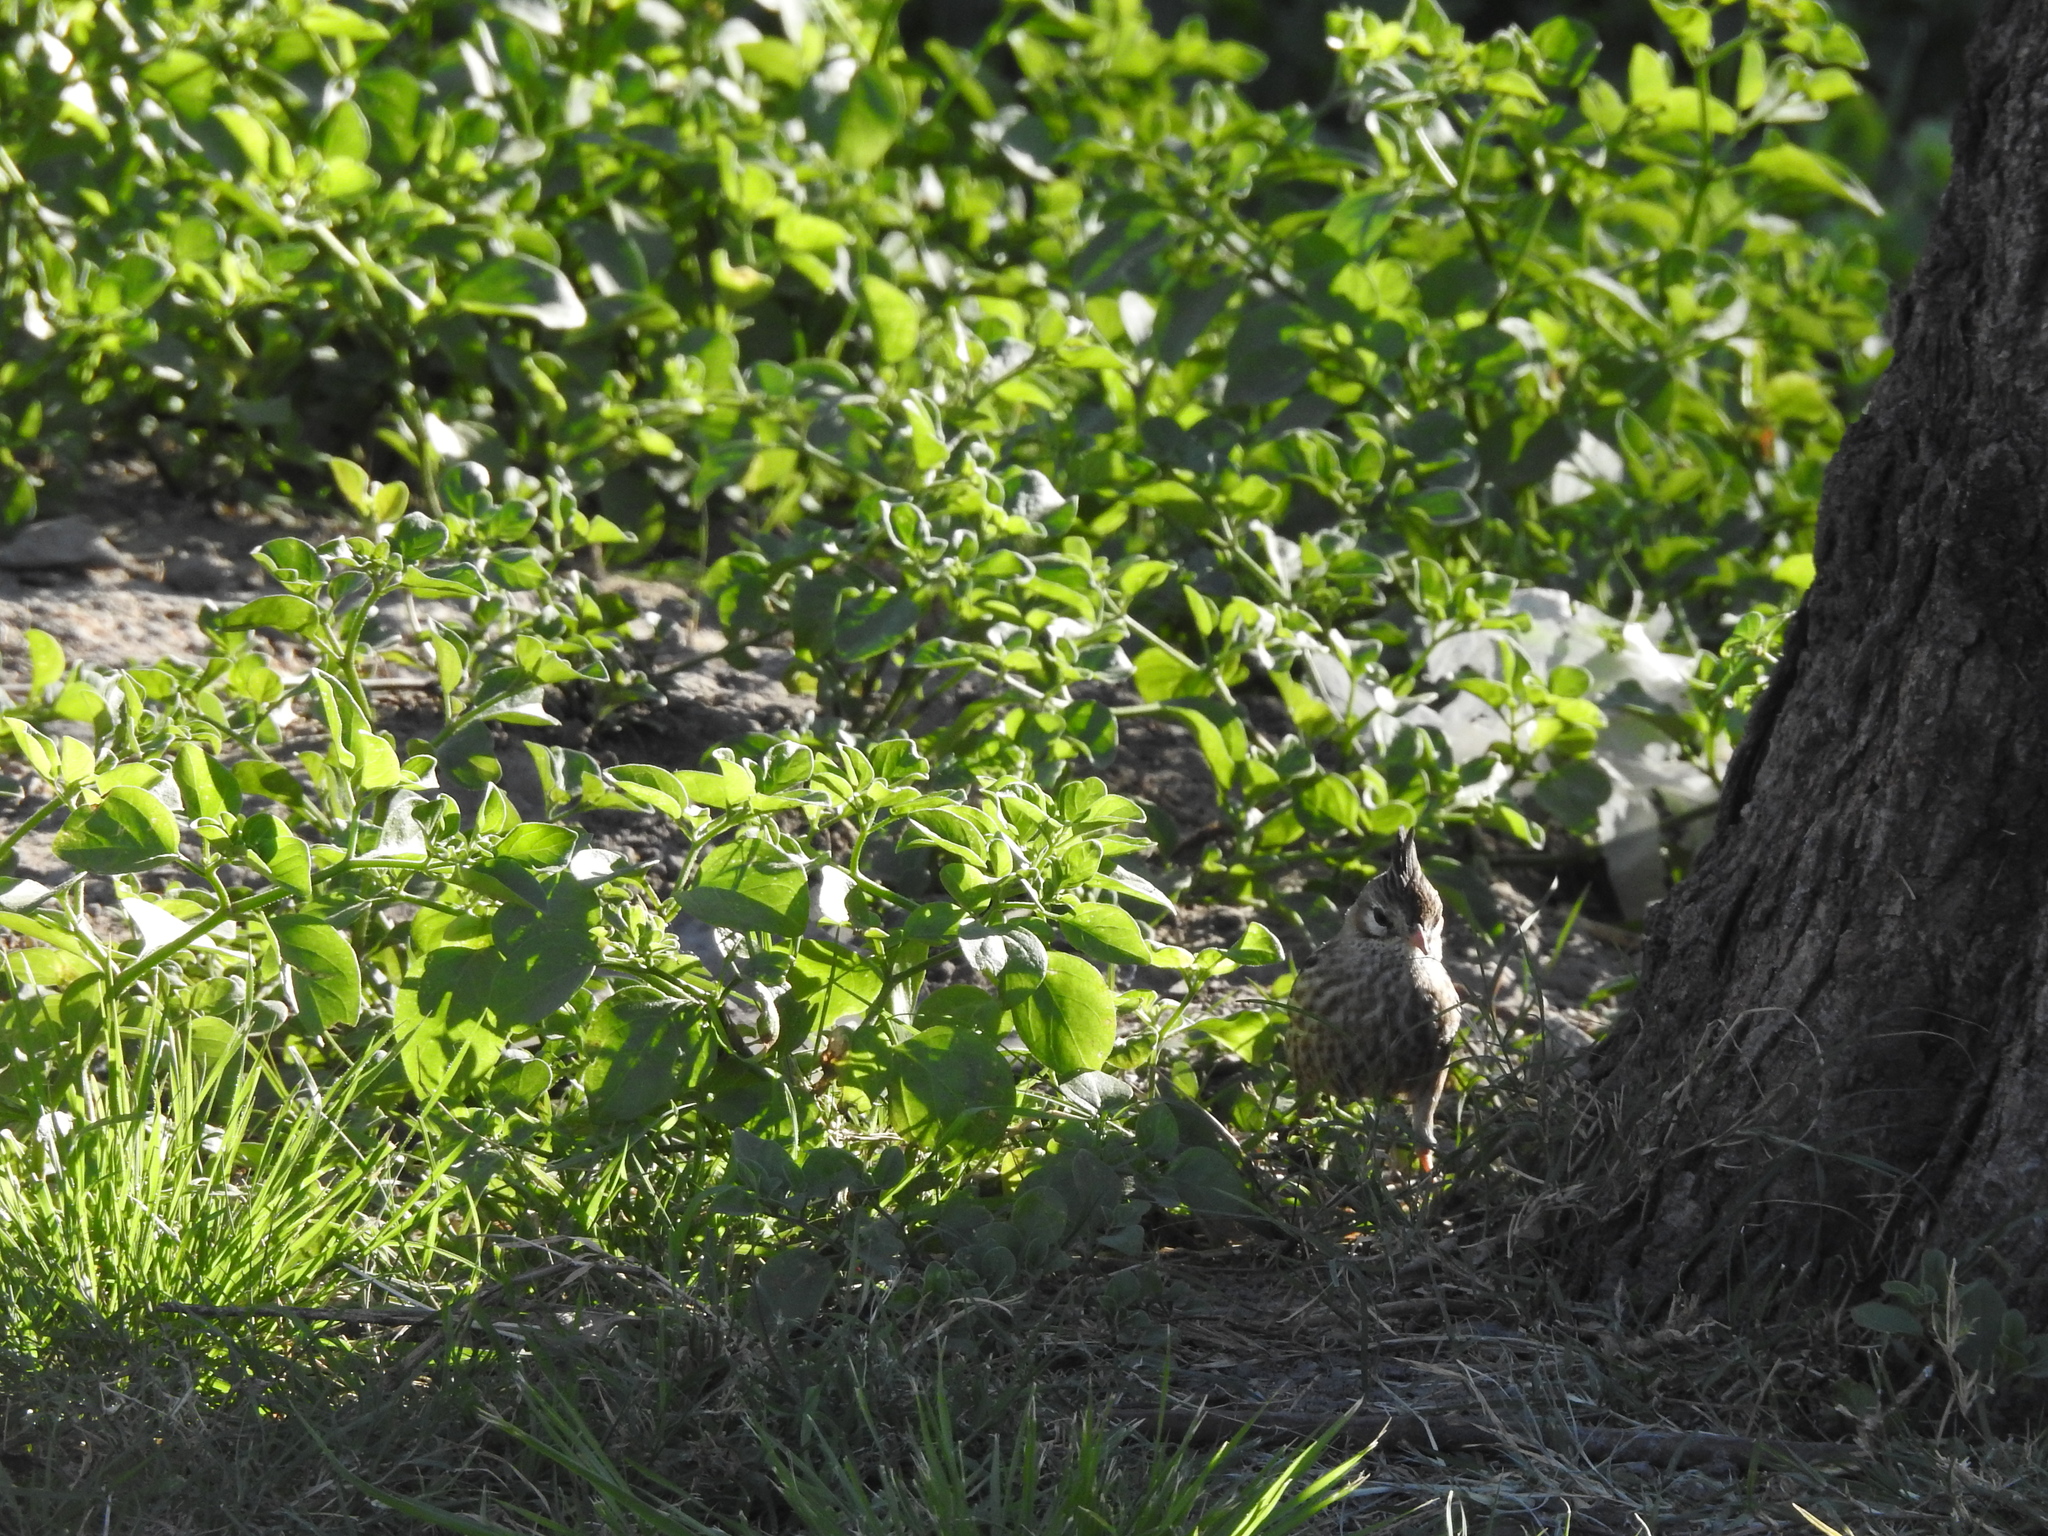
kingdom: Animalia
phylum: Chordata
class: Aves
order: Passeriformes
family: Furnariidae
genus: Coryphistera
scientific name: Coryphistera alaudina
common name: Lark-like brushrunner
